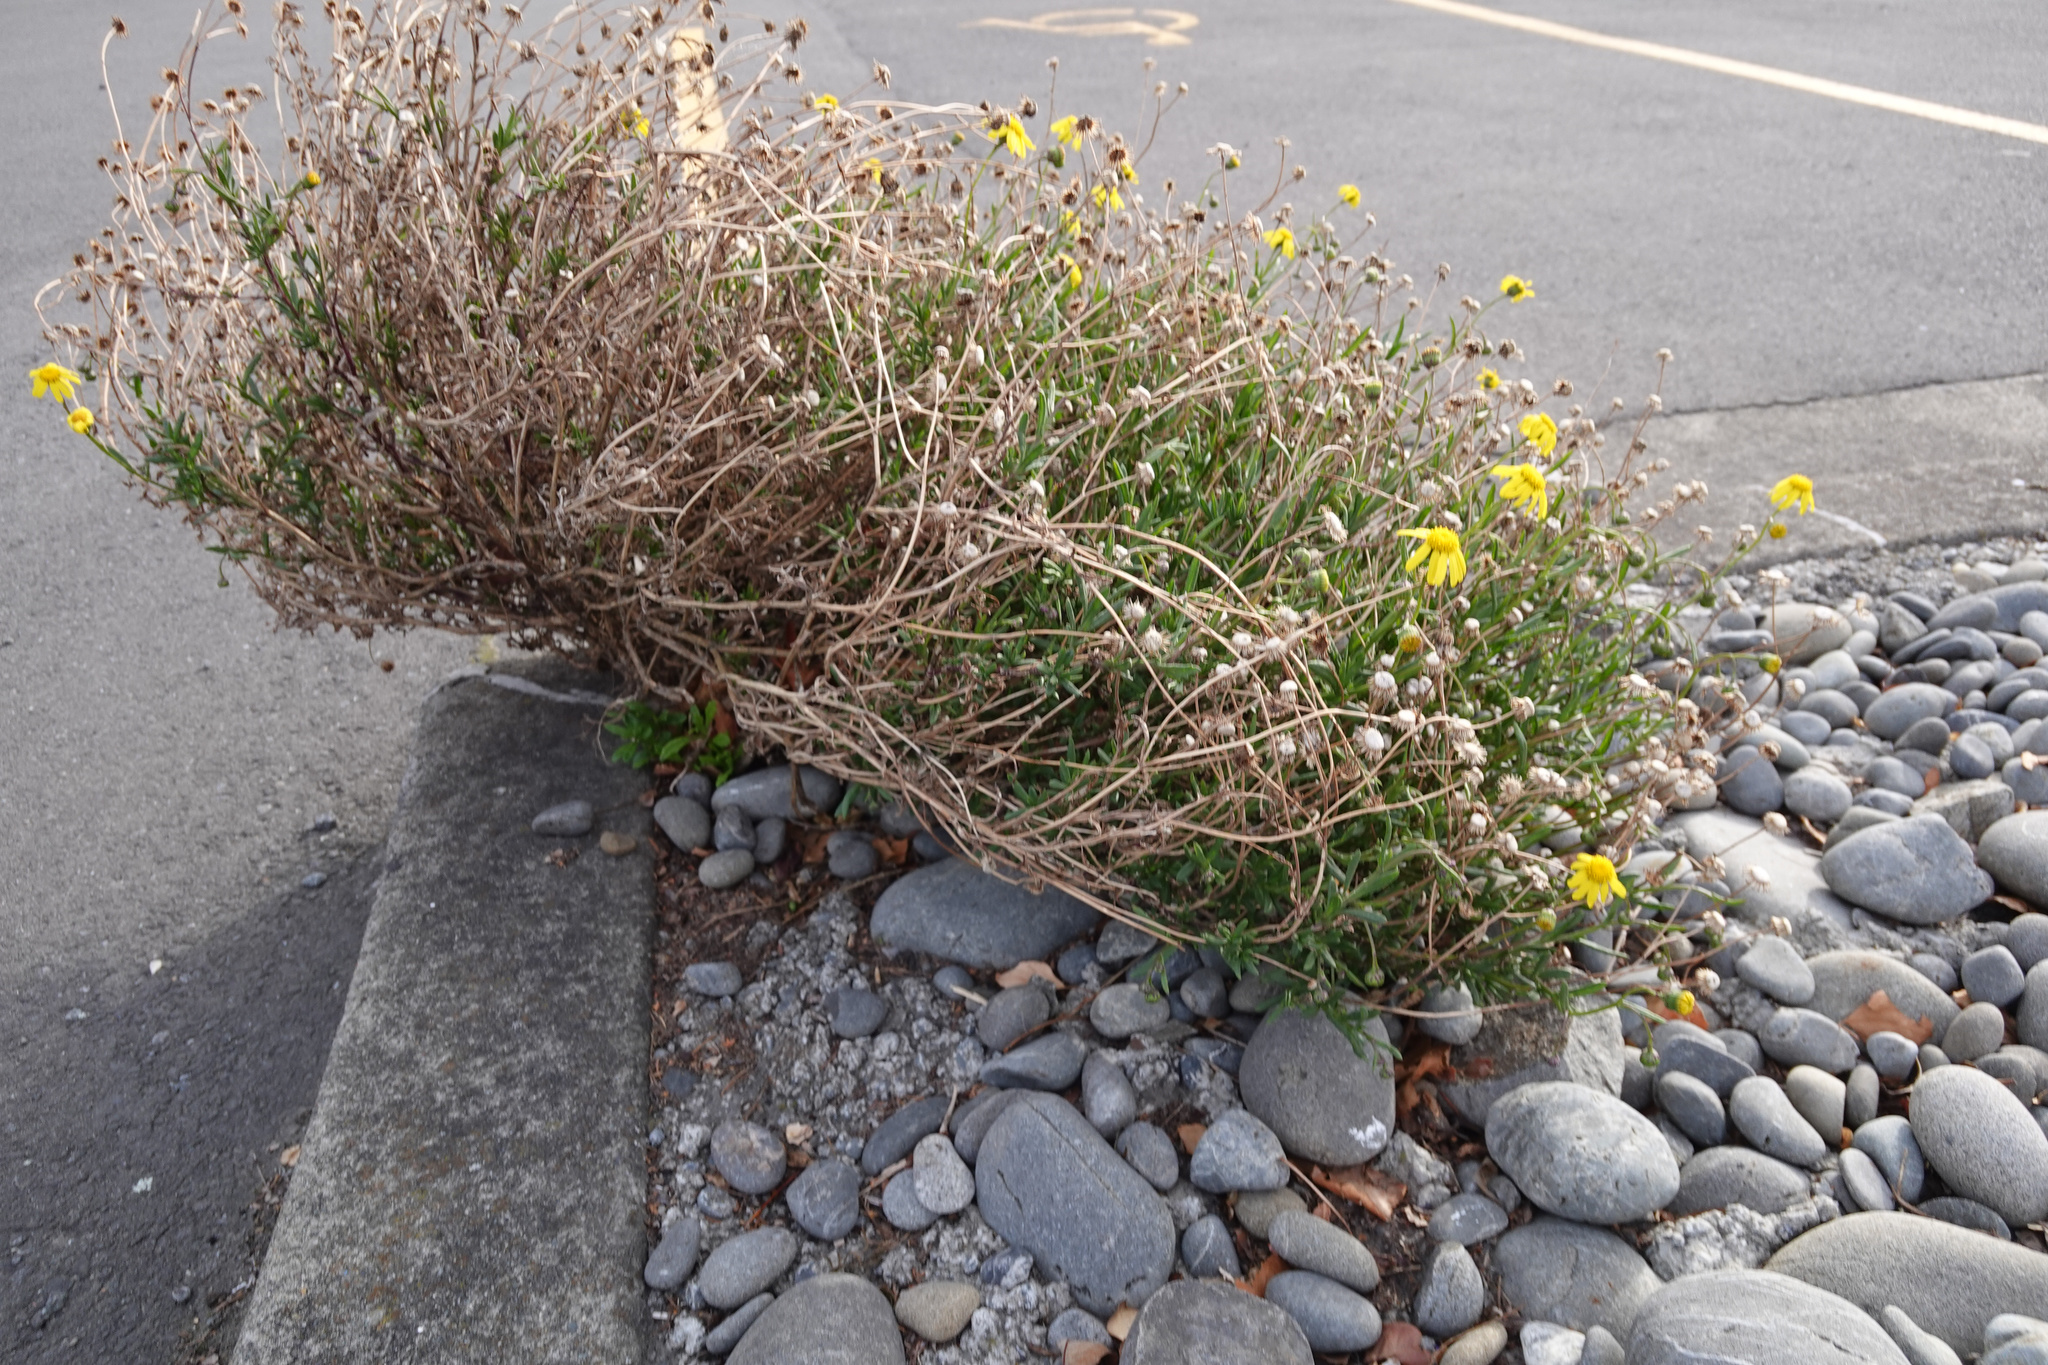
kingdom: Plantae
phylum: Tracheophyta
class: Magnoliopsida
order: Asterales
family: Asteraceae
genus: Senecio
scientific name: Senecio skirrhodon
